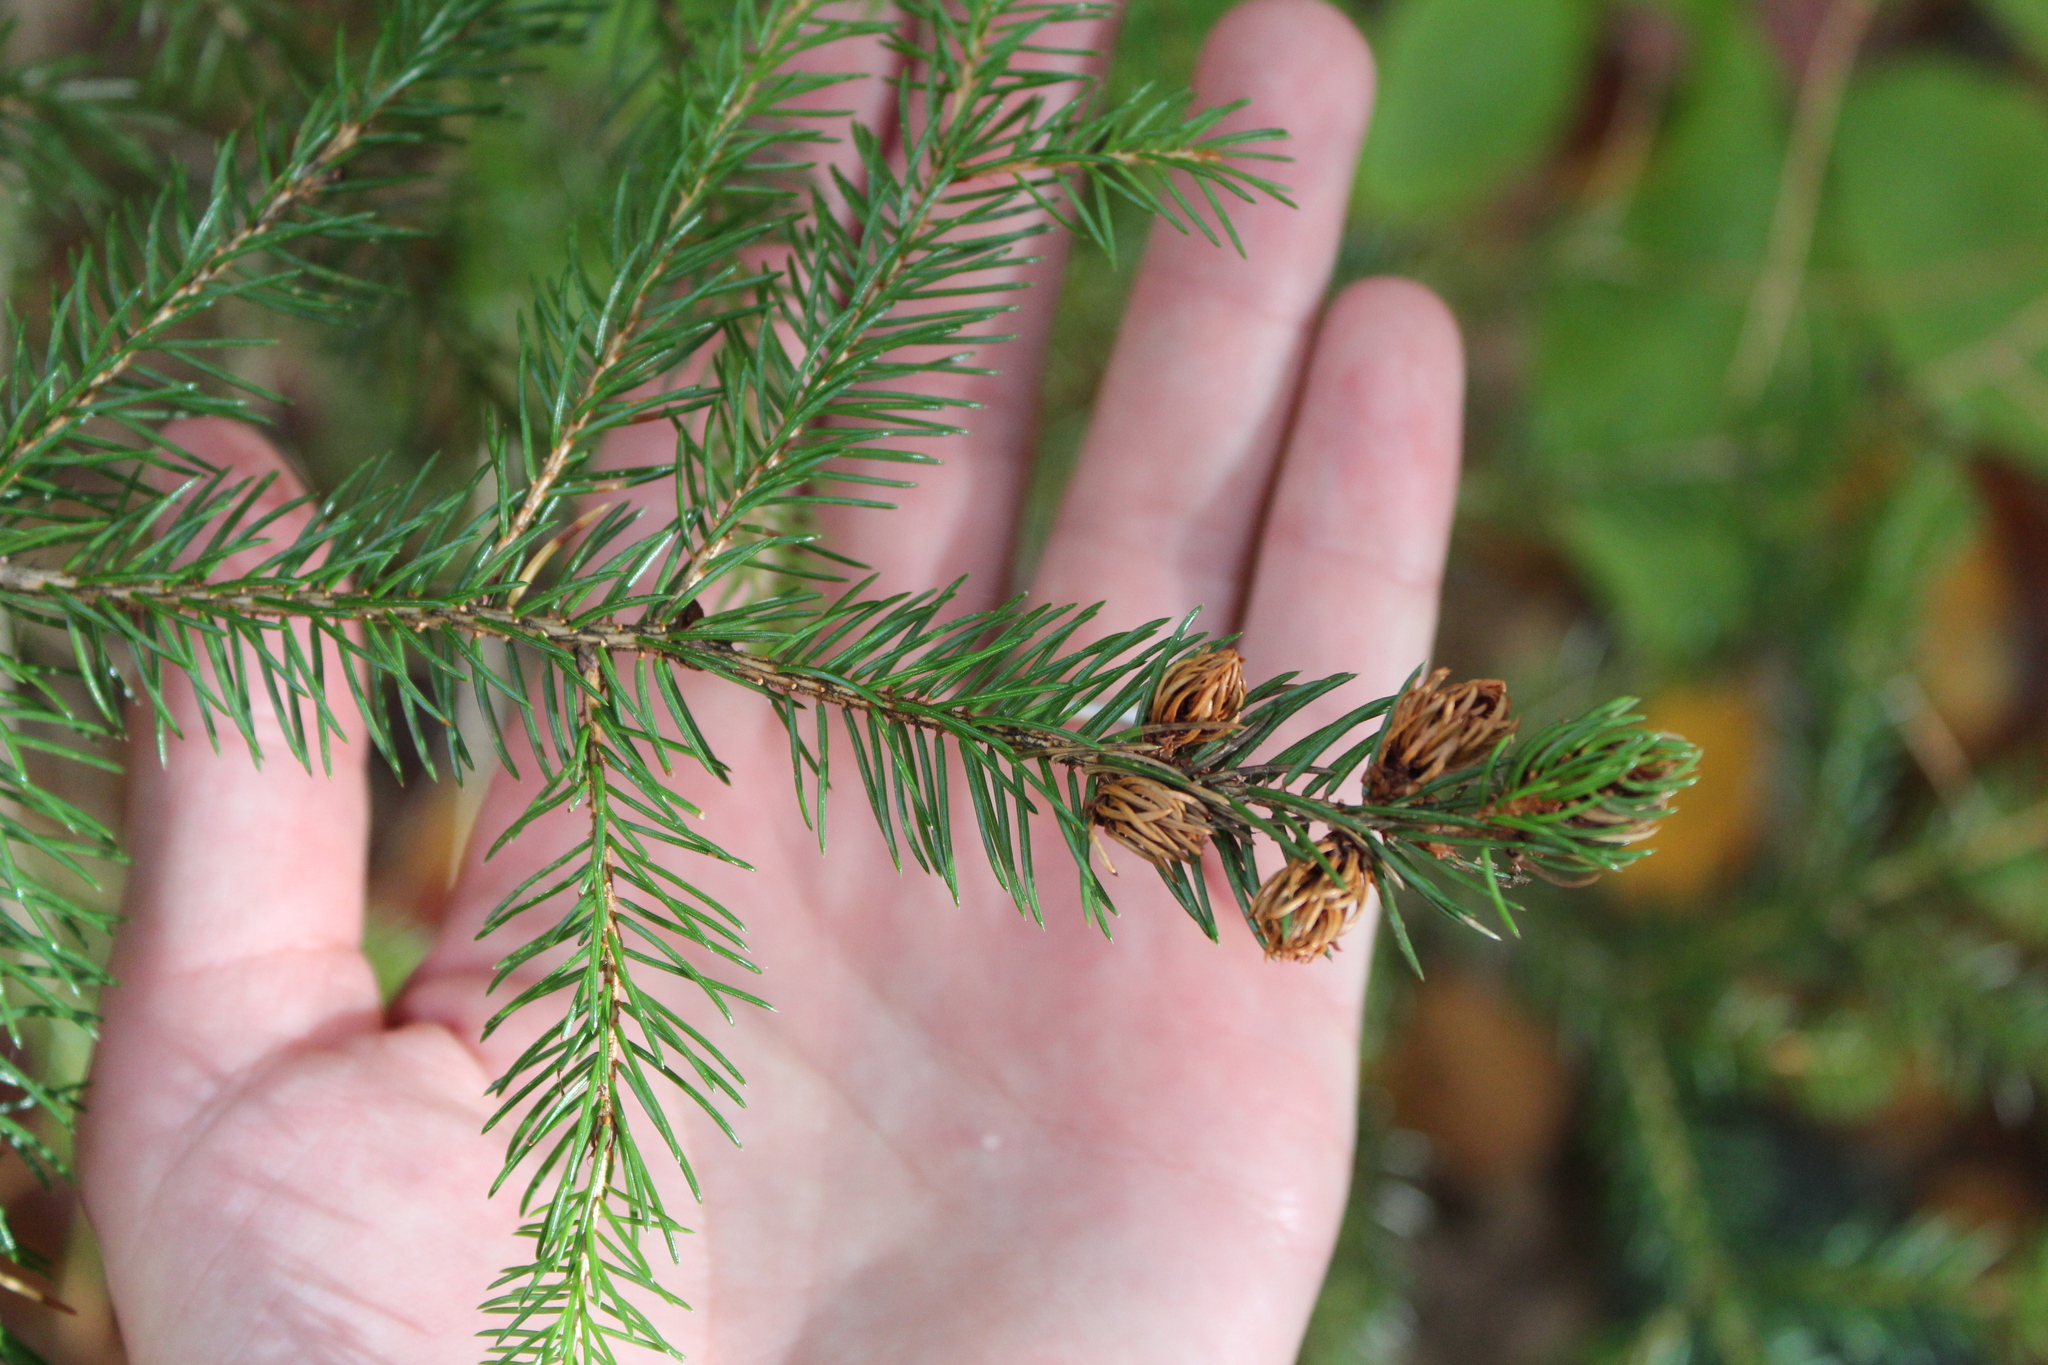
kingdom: Plantae
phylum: Tracheophyta
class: Pinopsida
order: Pinales
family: Pinaceae
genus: Picea
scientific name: Picea rubens
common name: Red spruce
